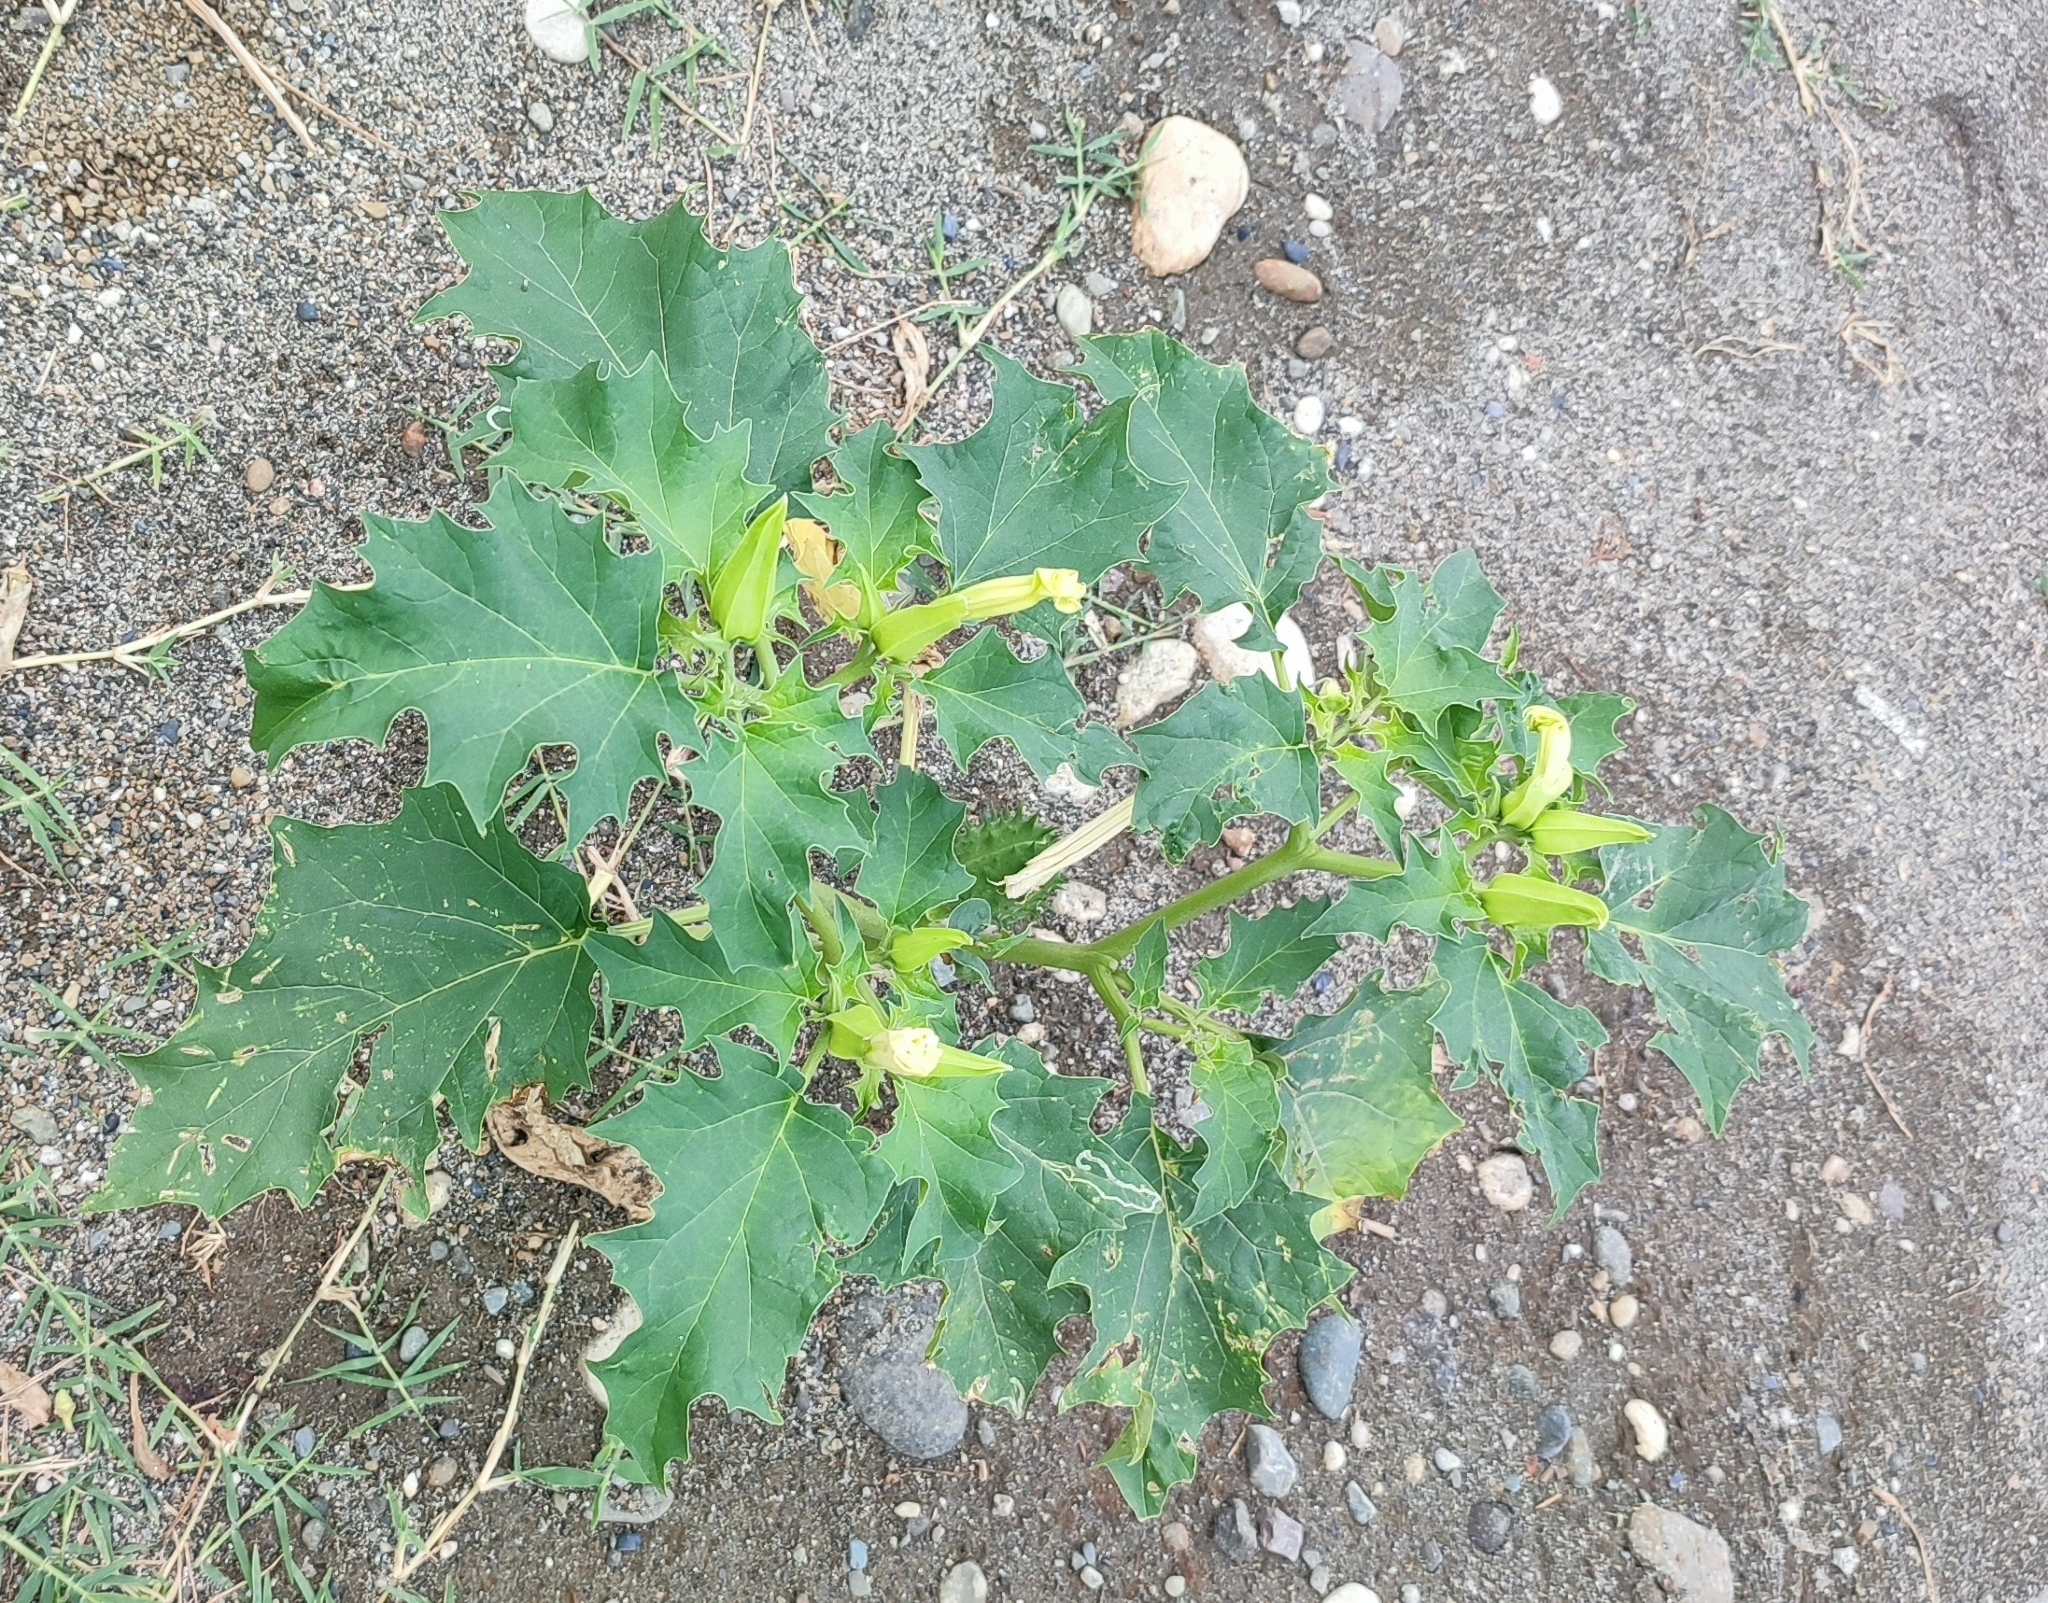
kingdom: Plantae
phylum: Tracheophyta
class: Magnoliopsida
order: Solanales
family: Solanaceae
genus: Datura
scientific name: Datura stramonium
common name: Thorn-apple
